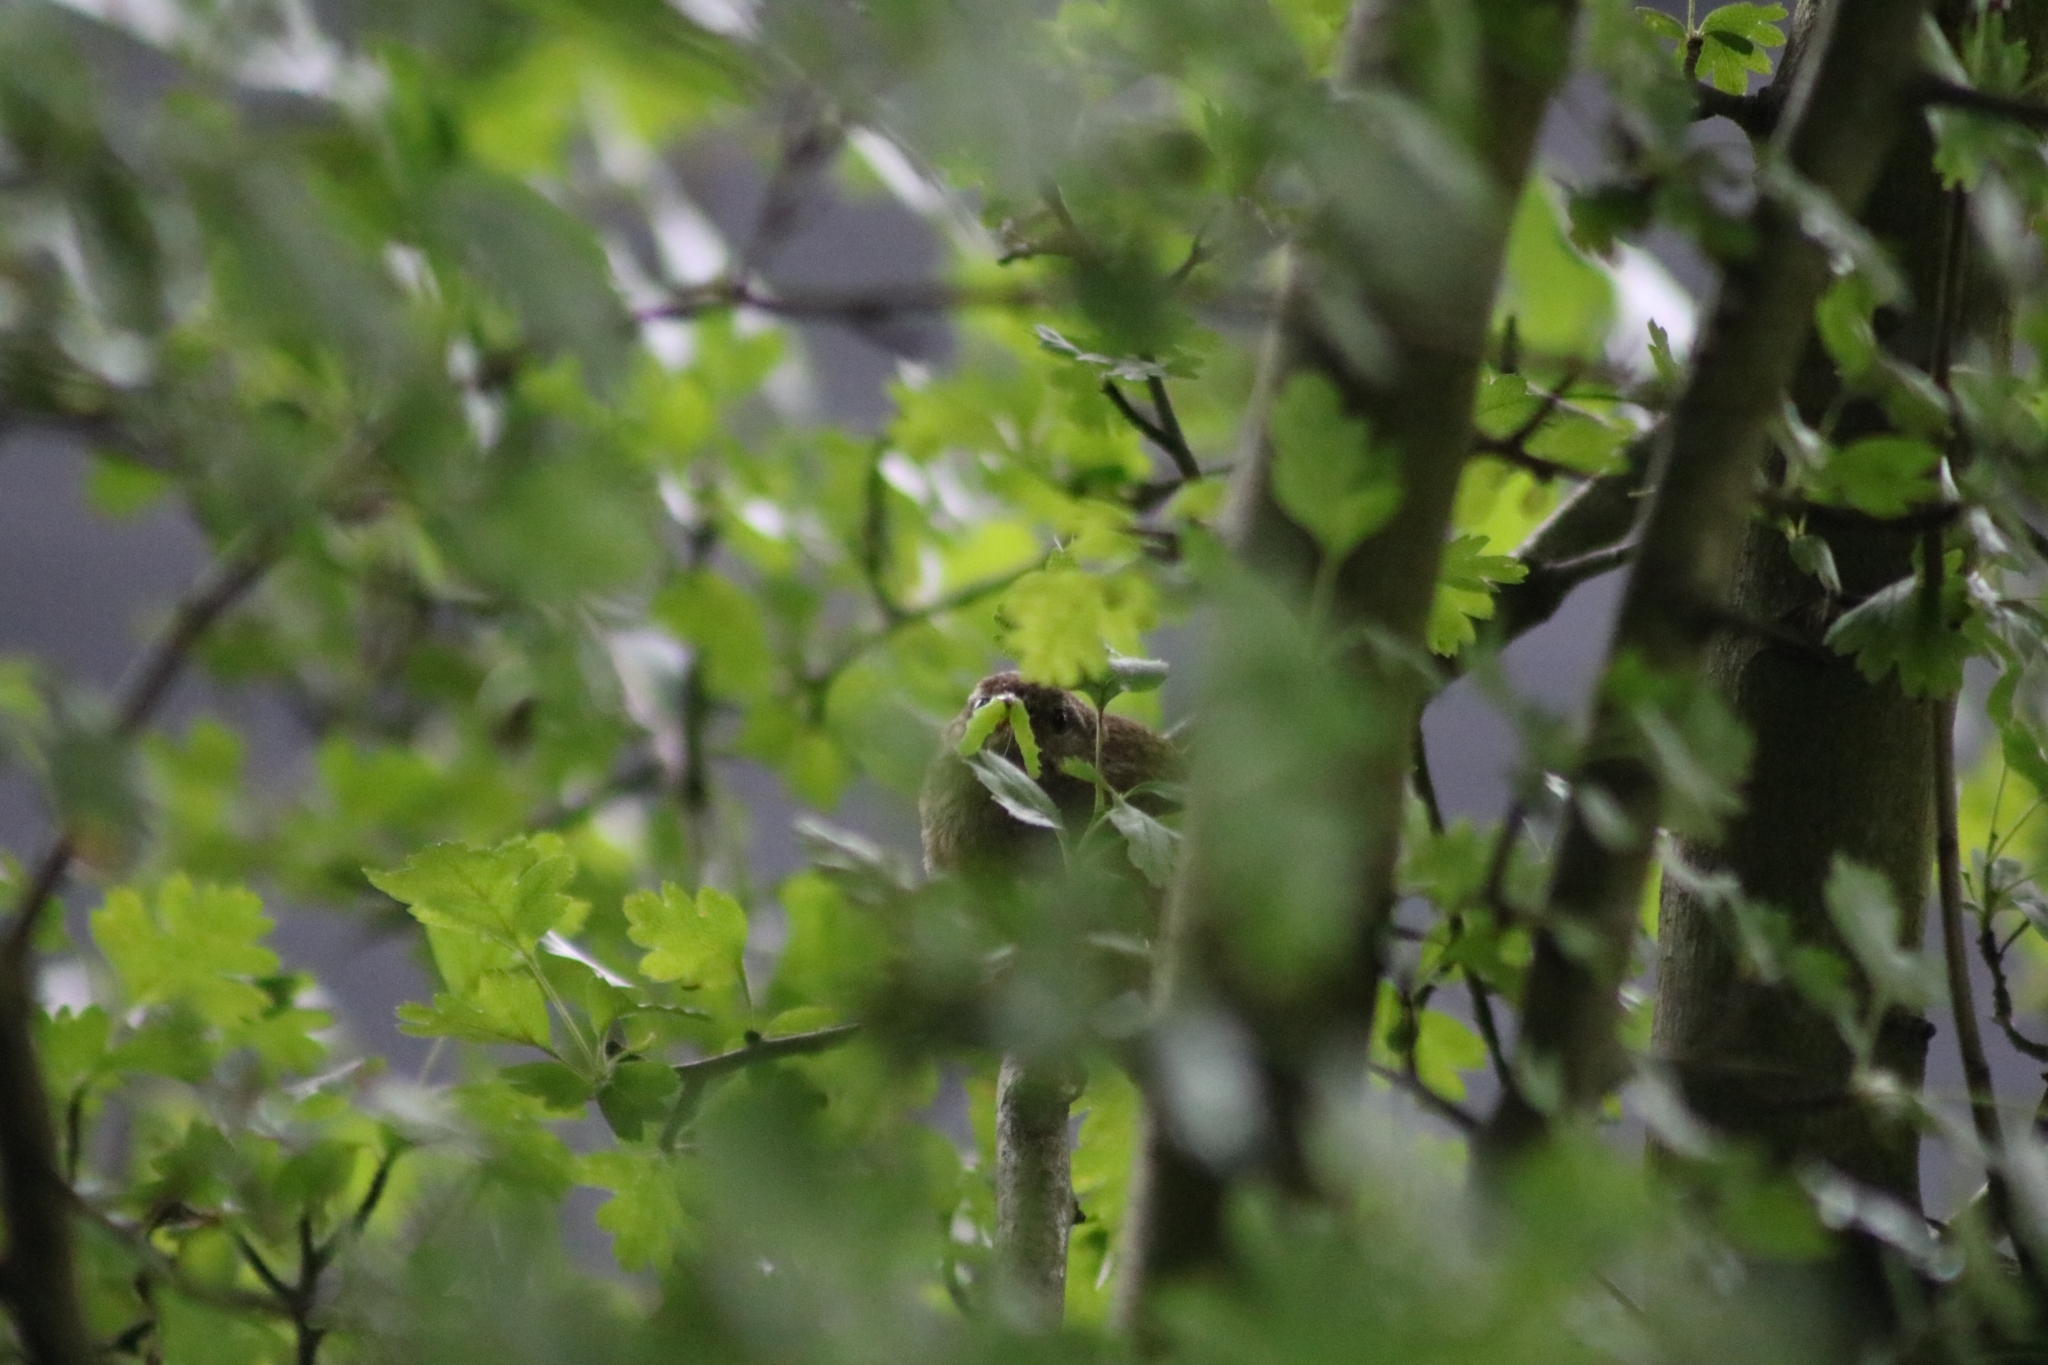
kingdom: Animalia
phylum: Chordata
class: Aves
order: Passeriformes
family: Troglodytidae
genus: Troglodytes
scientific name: Troglodytes troglodytes
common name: Eurasian wren
